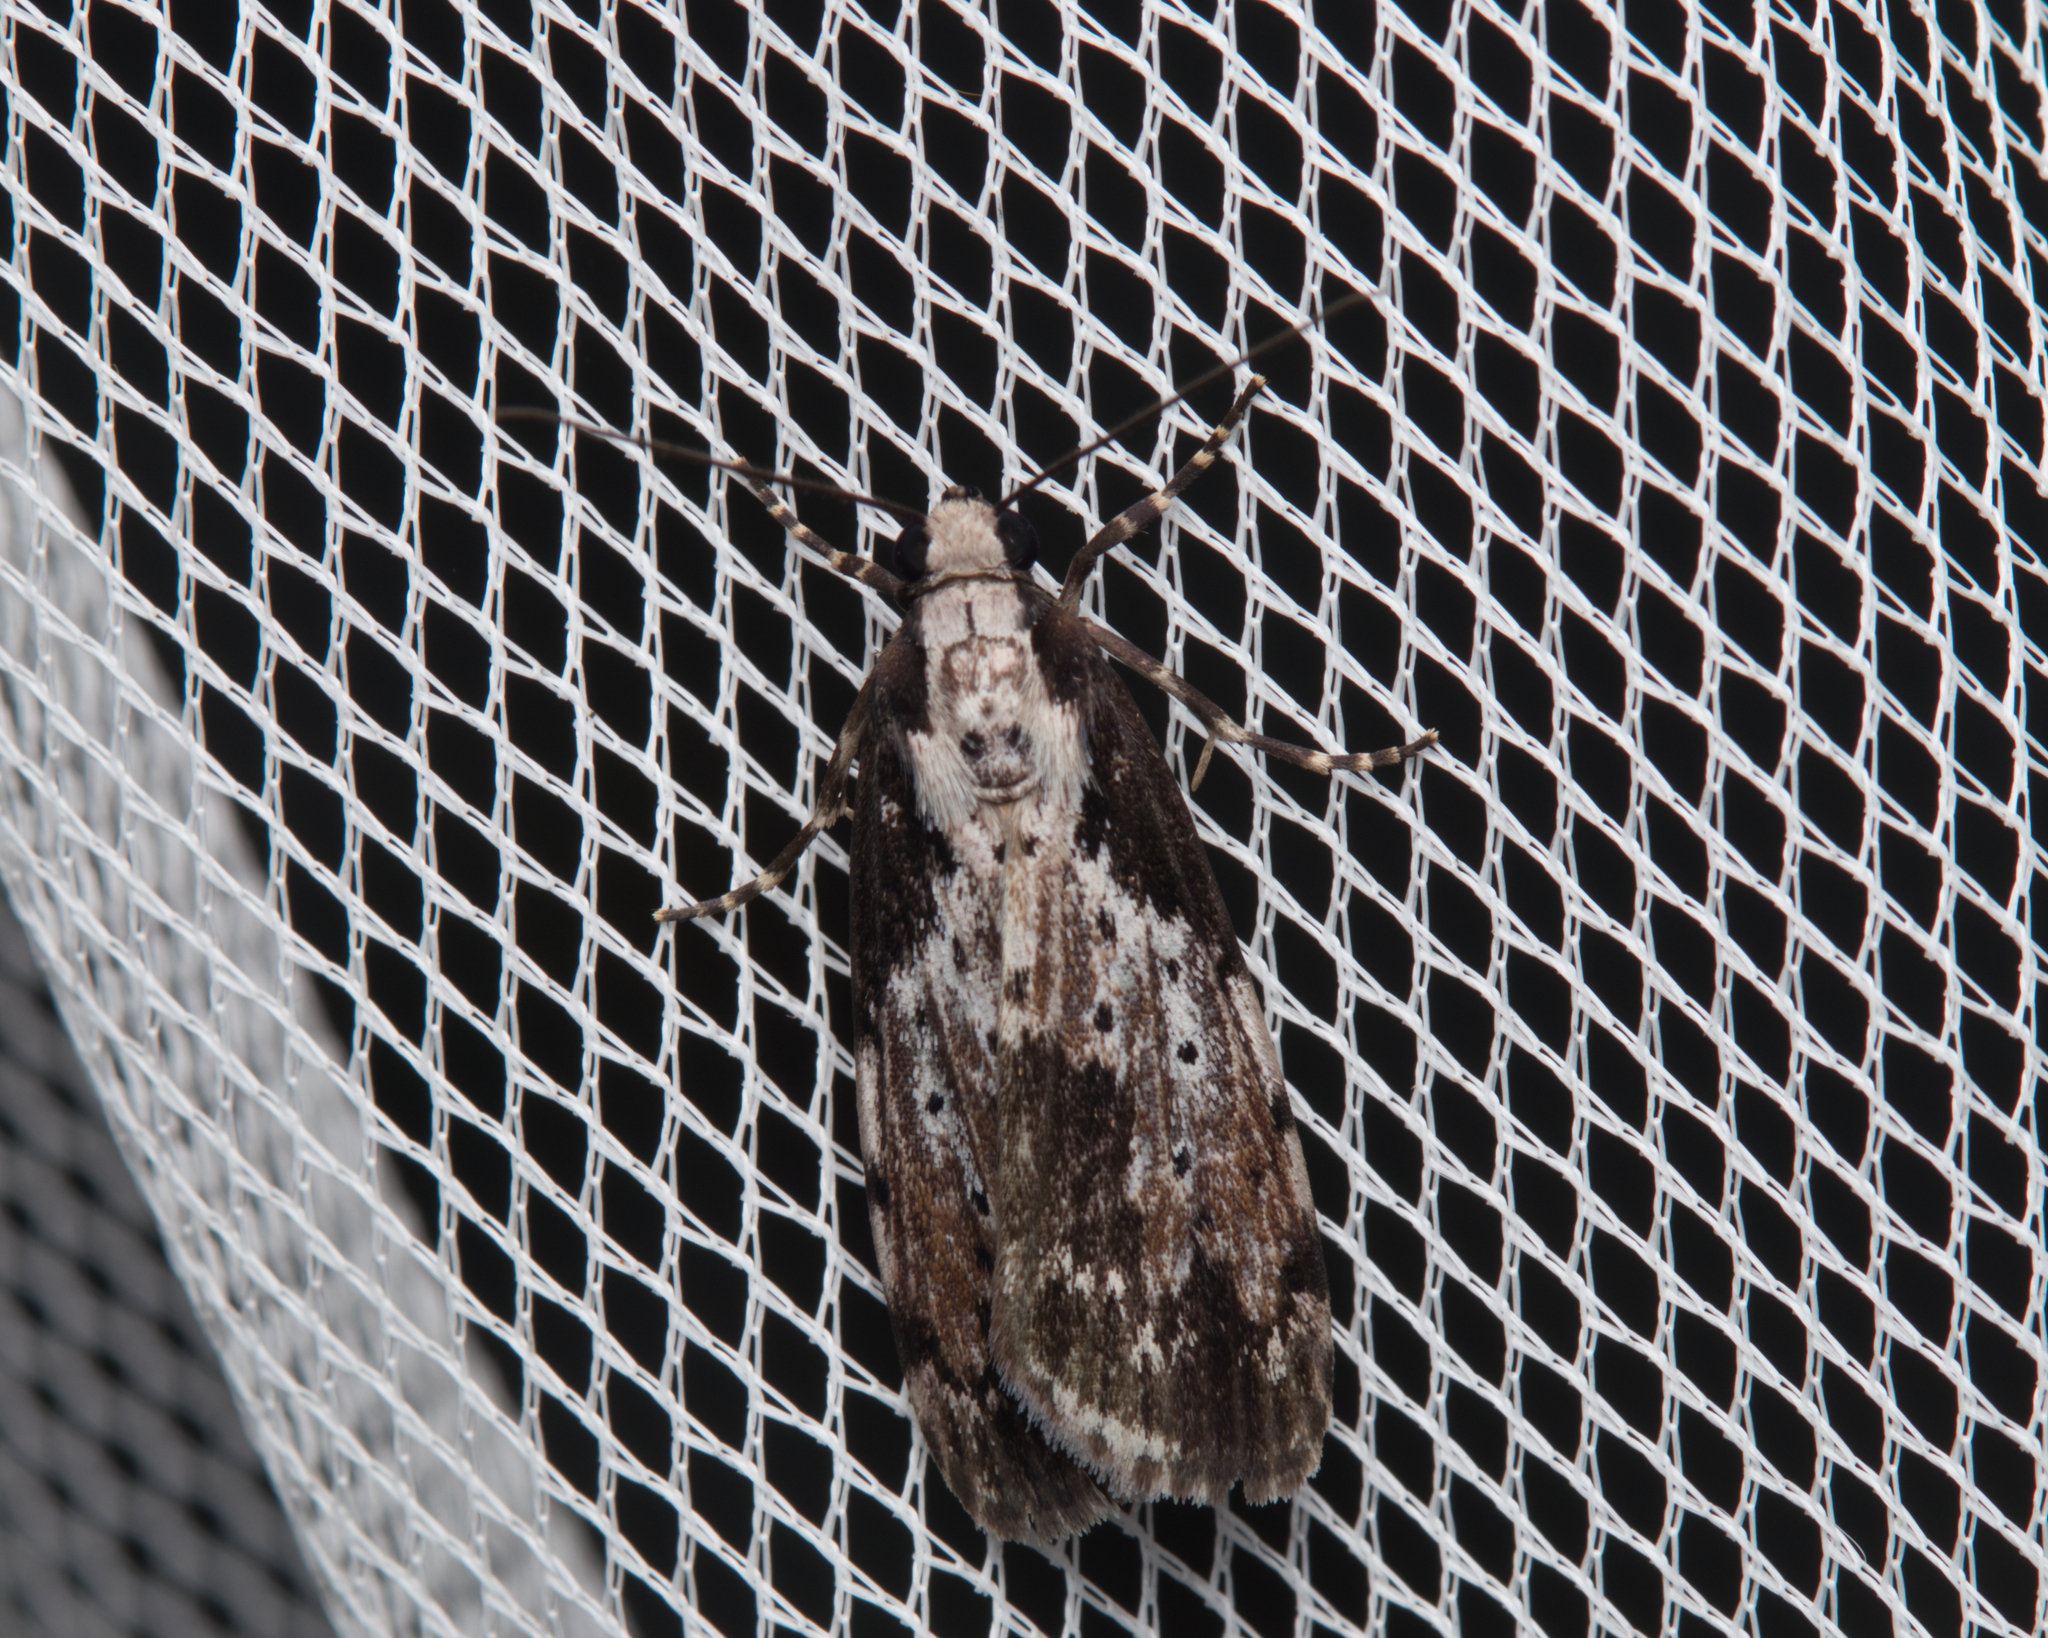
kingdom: Animalia
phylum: Arthropoda
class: Insecta
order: Lepidoptera
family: Erebidae
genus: Digama
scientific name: Digama Sommeria marmorea
